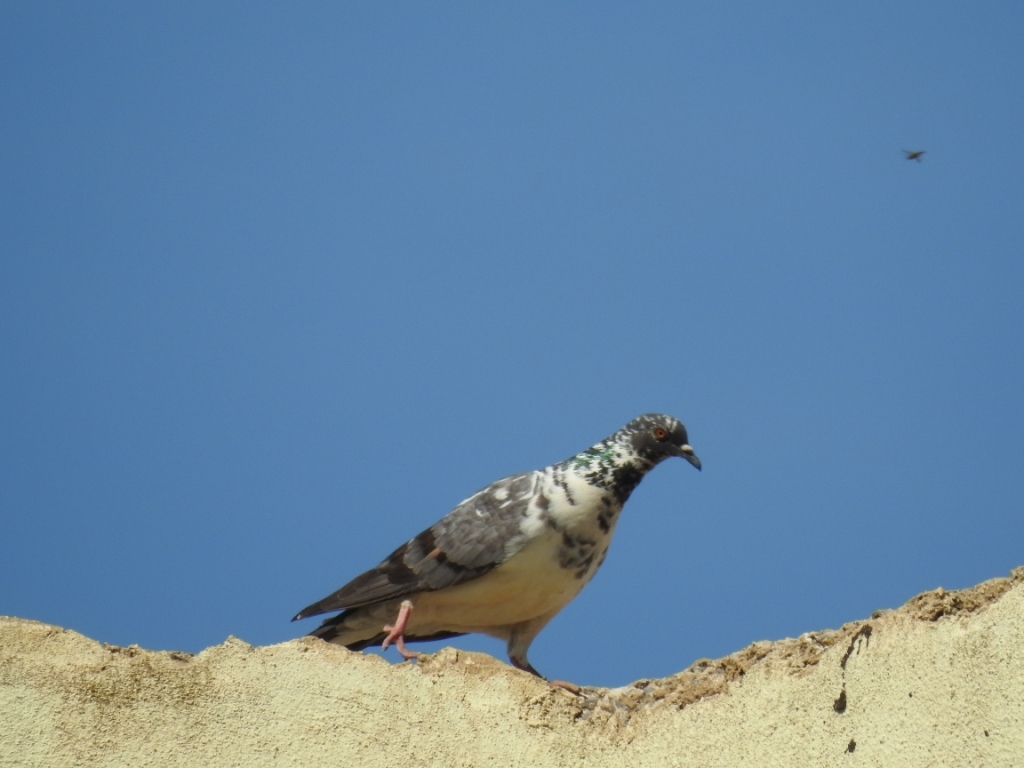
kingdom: Animalia
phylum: Chordata
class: Aves
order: Columbiformes
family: Columbidae
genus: Columba
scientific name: Columba livia
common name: Rock pigeon
